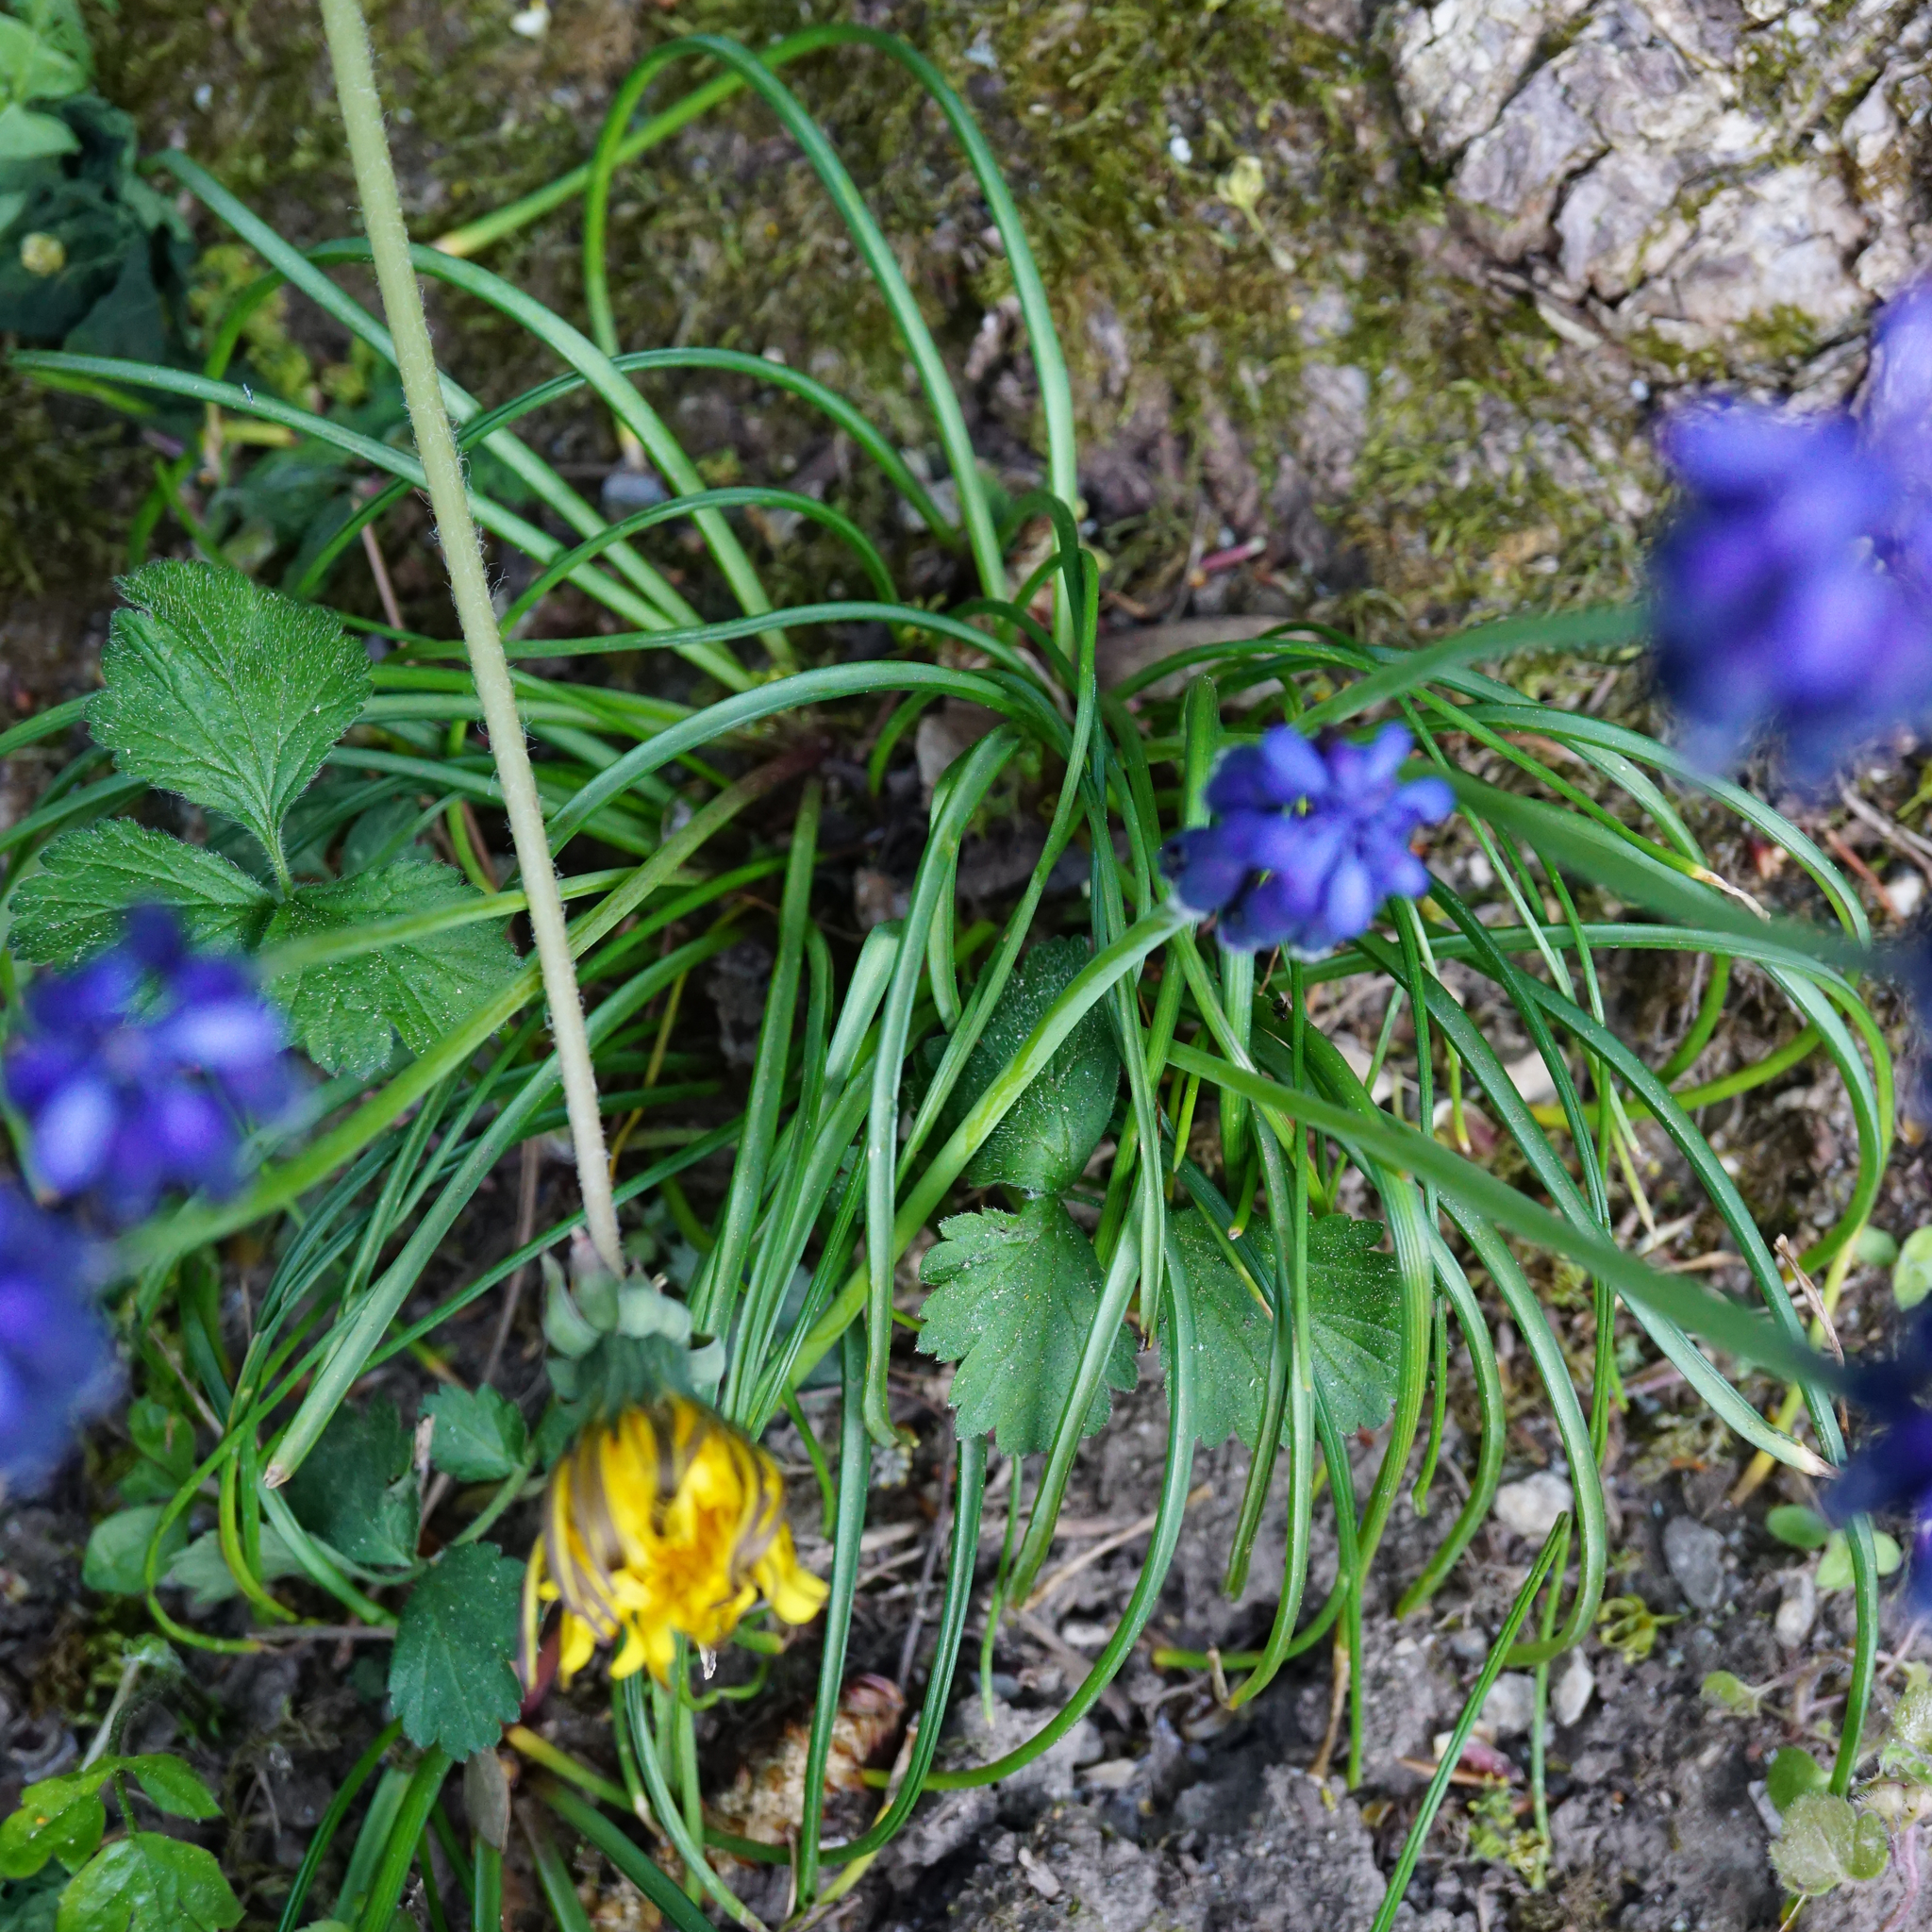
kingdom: Plantae
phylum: Tracheophyta
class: Liliopsida
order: Asparagales
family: Asparagaceae
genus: Muscari
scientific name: Muscari neglectum
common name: Grape-hyacinth
